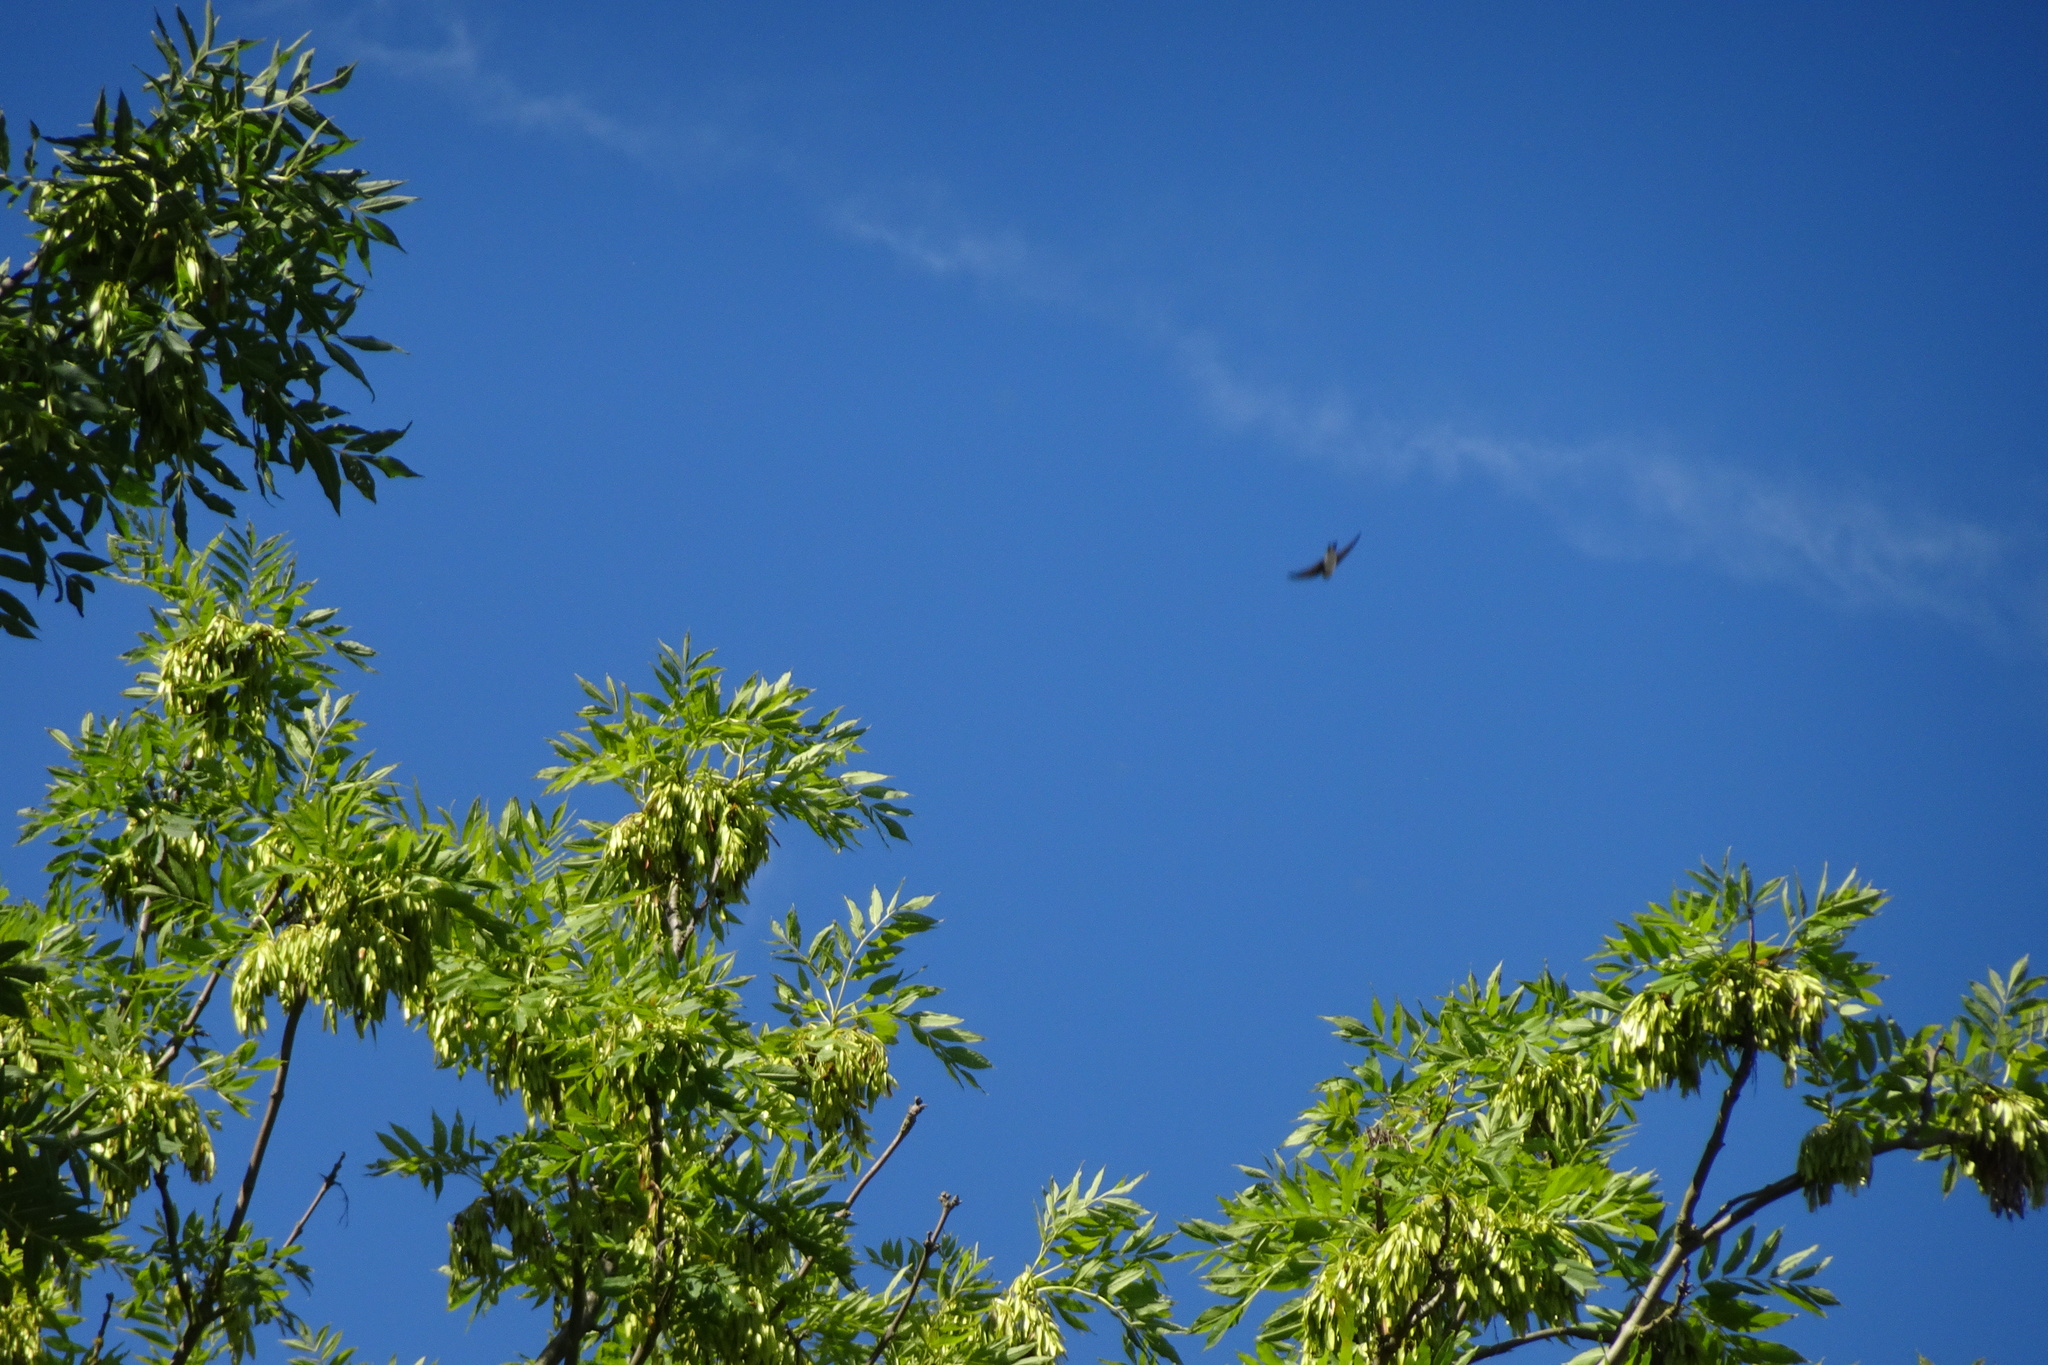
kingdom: Animalia
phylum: Chordata
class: Aves
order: Passeriformes
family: Hirundinidae
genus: Delichon
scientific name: Delichon urbicum
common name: Common house martin
